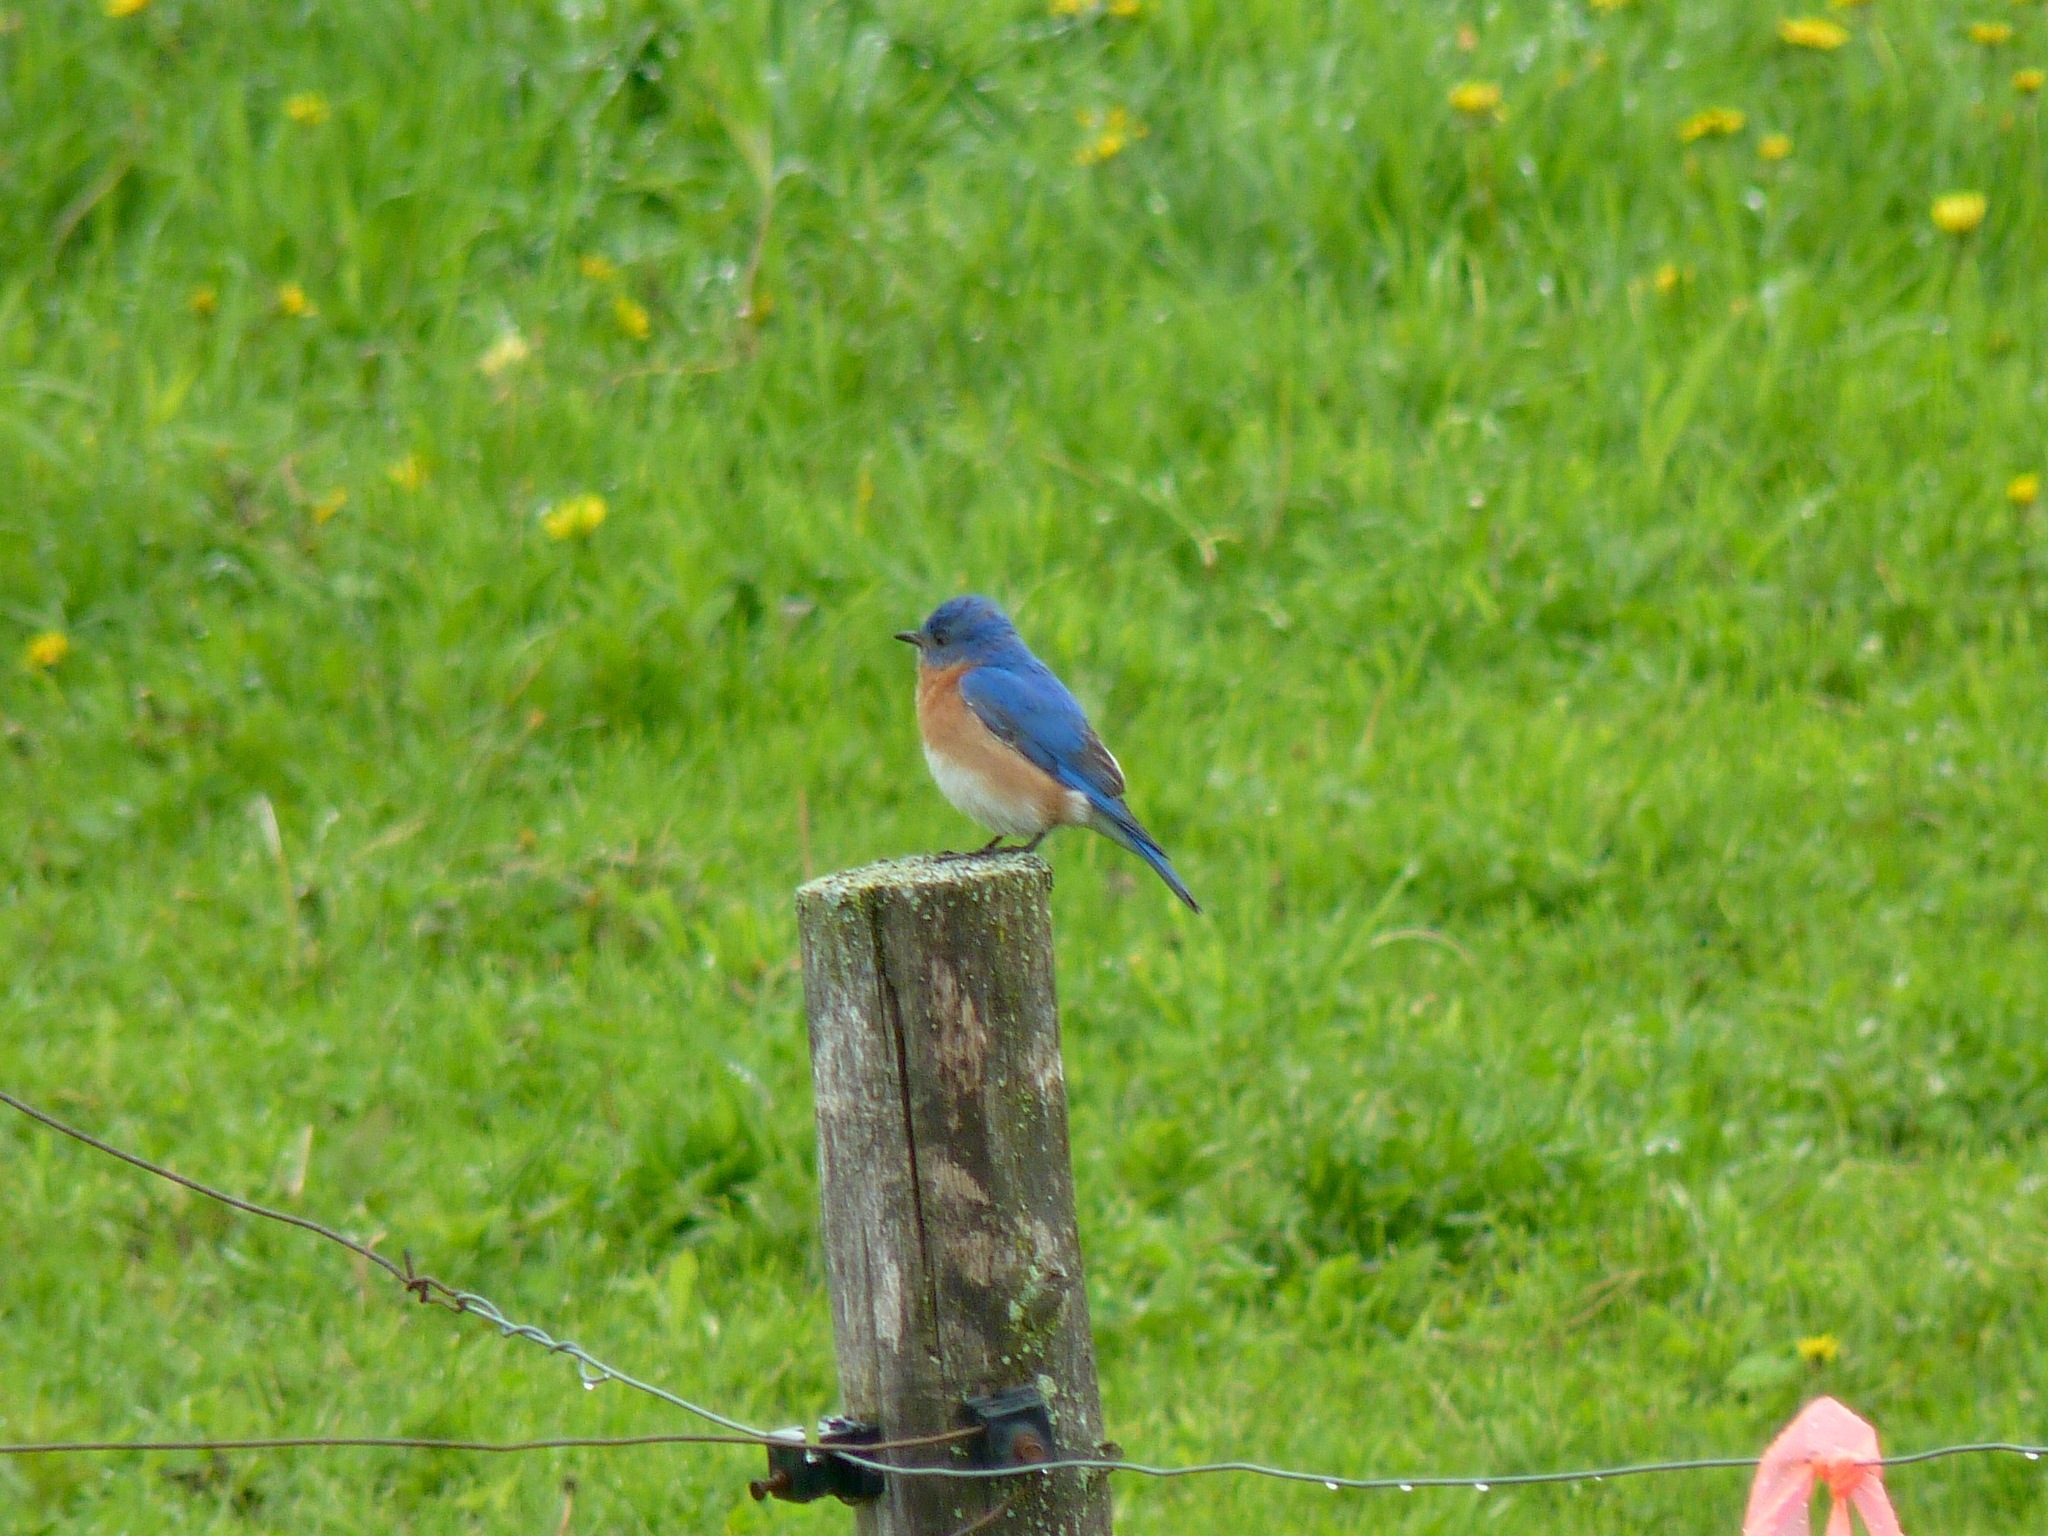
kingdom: Animalia
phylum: Chordata
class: Aves
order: Passeriformes
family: Turdidae
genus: Sialia
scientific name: Sialia sialis
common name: Eastern bluebird
